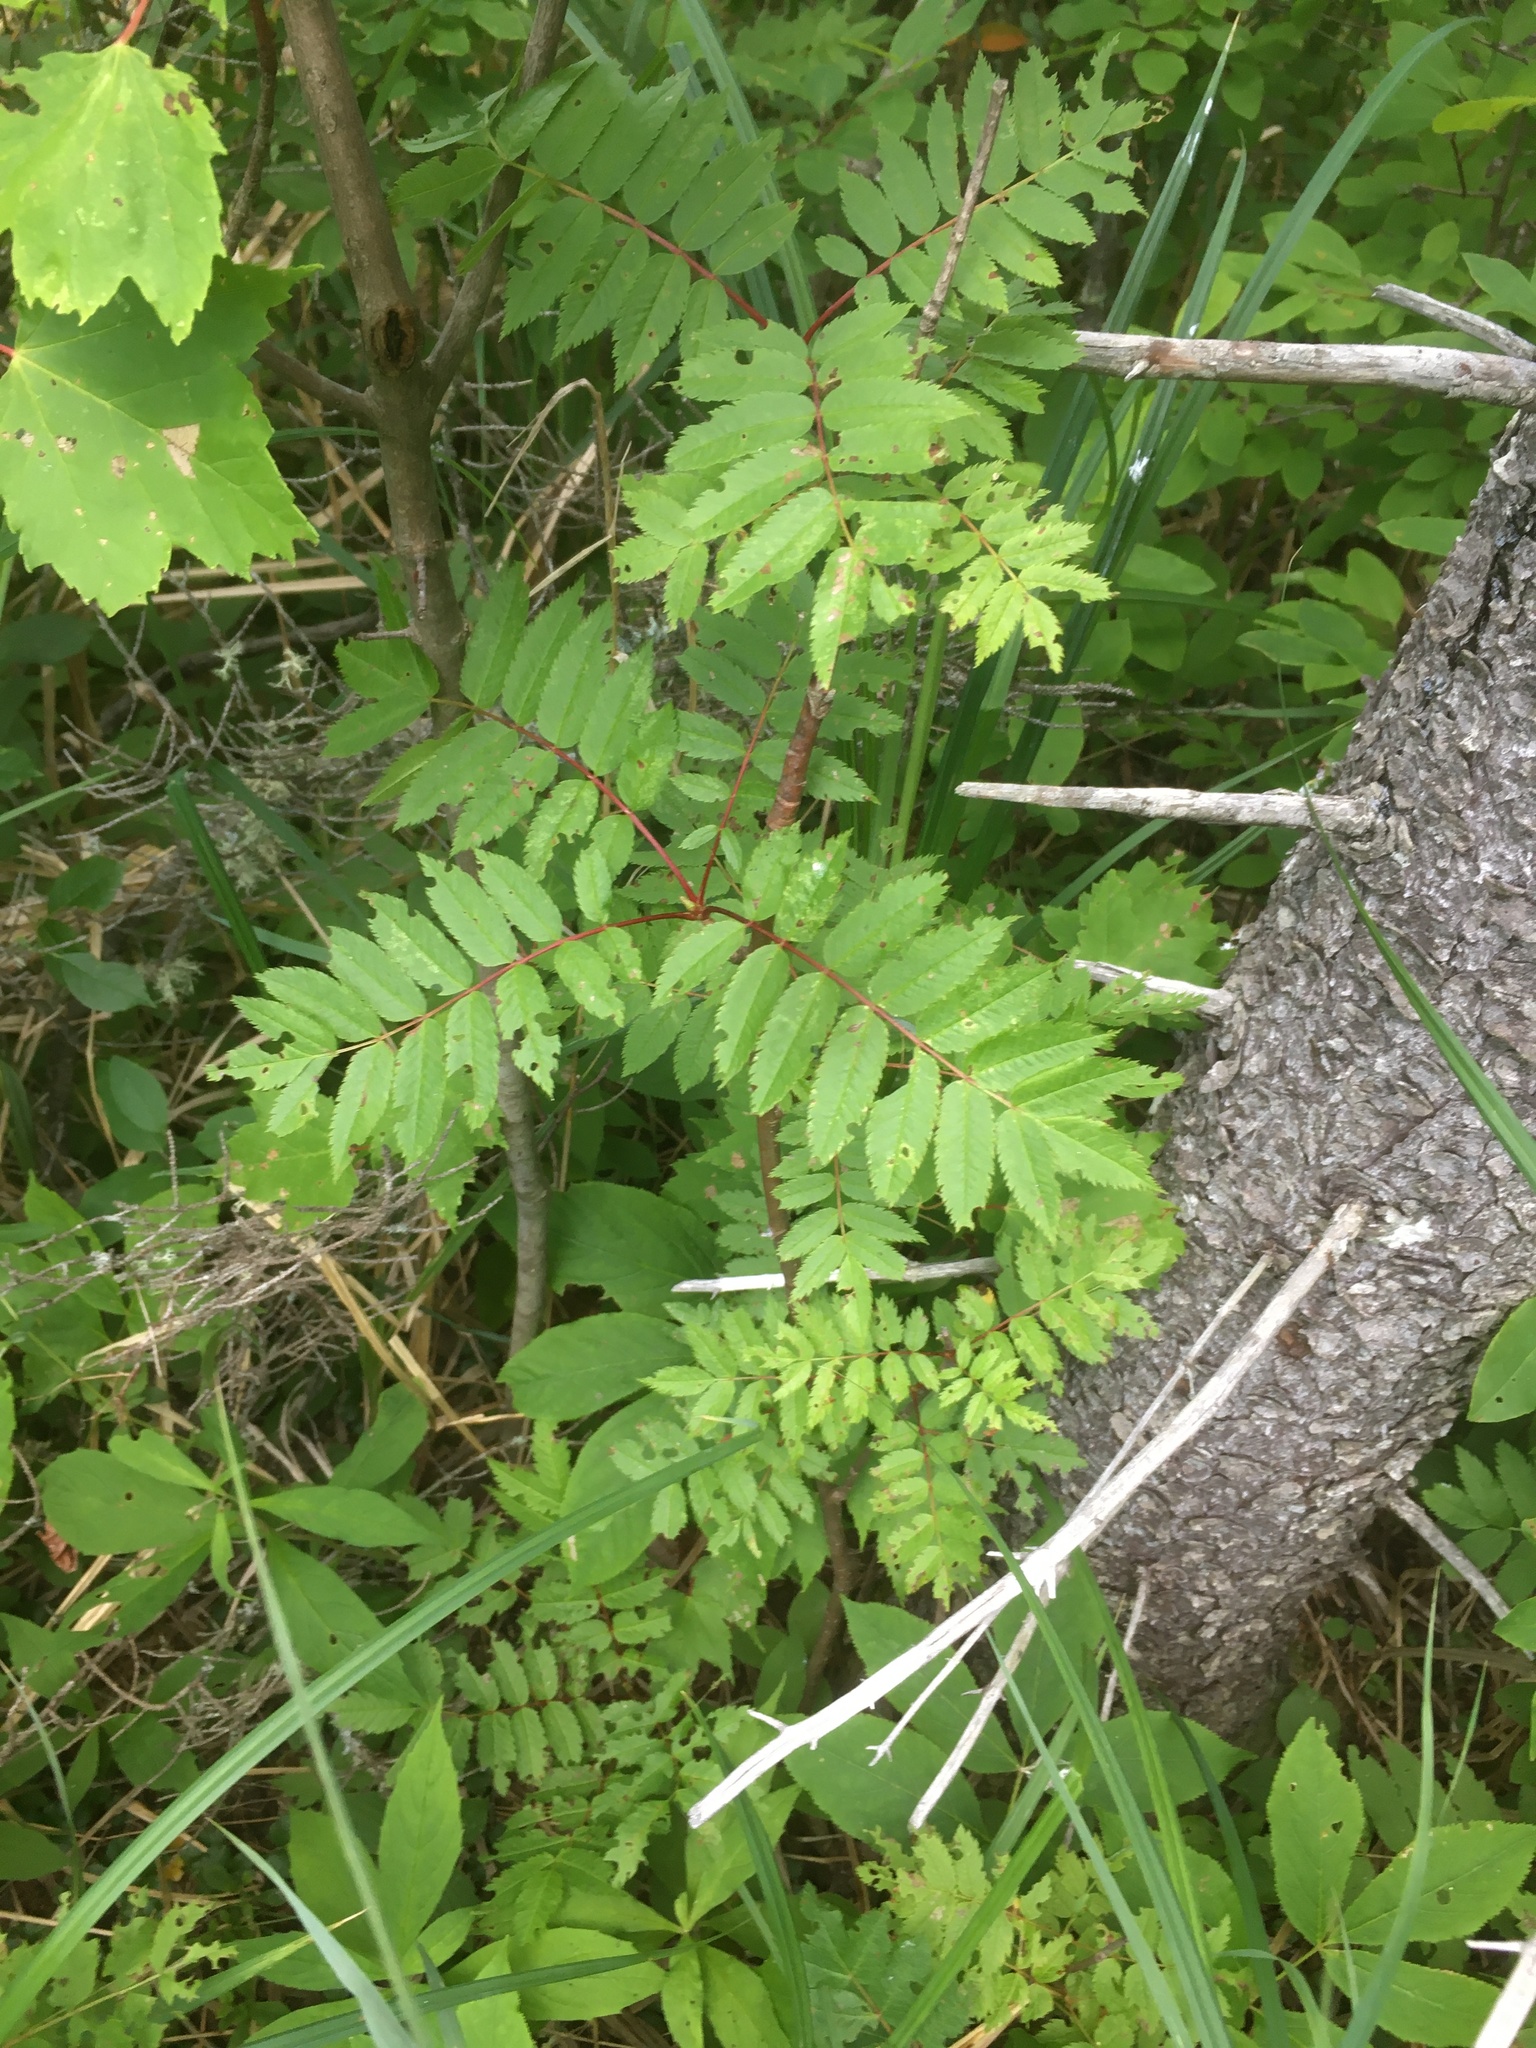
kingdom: Plantae
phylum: Tracheophyta
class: Magnoliopsida
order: Rosales
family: Rosaceae
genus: Sorbus
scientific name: Sorbus americana
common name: American mountain-ash
